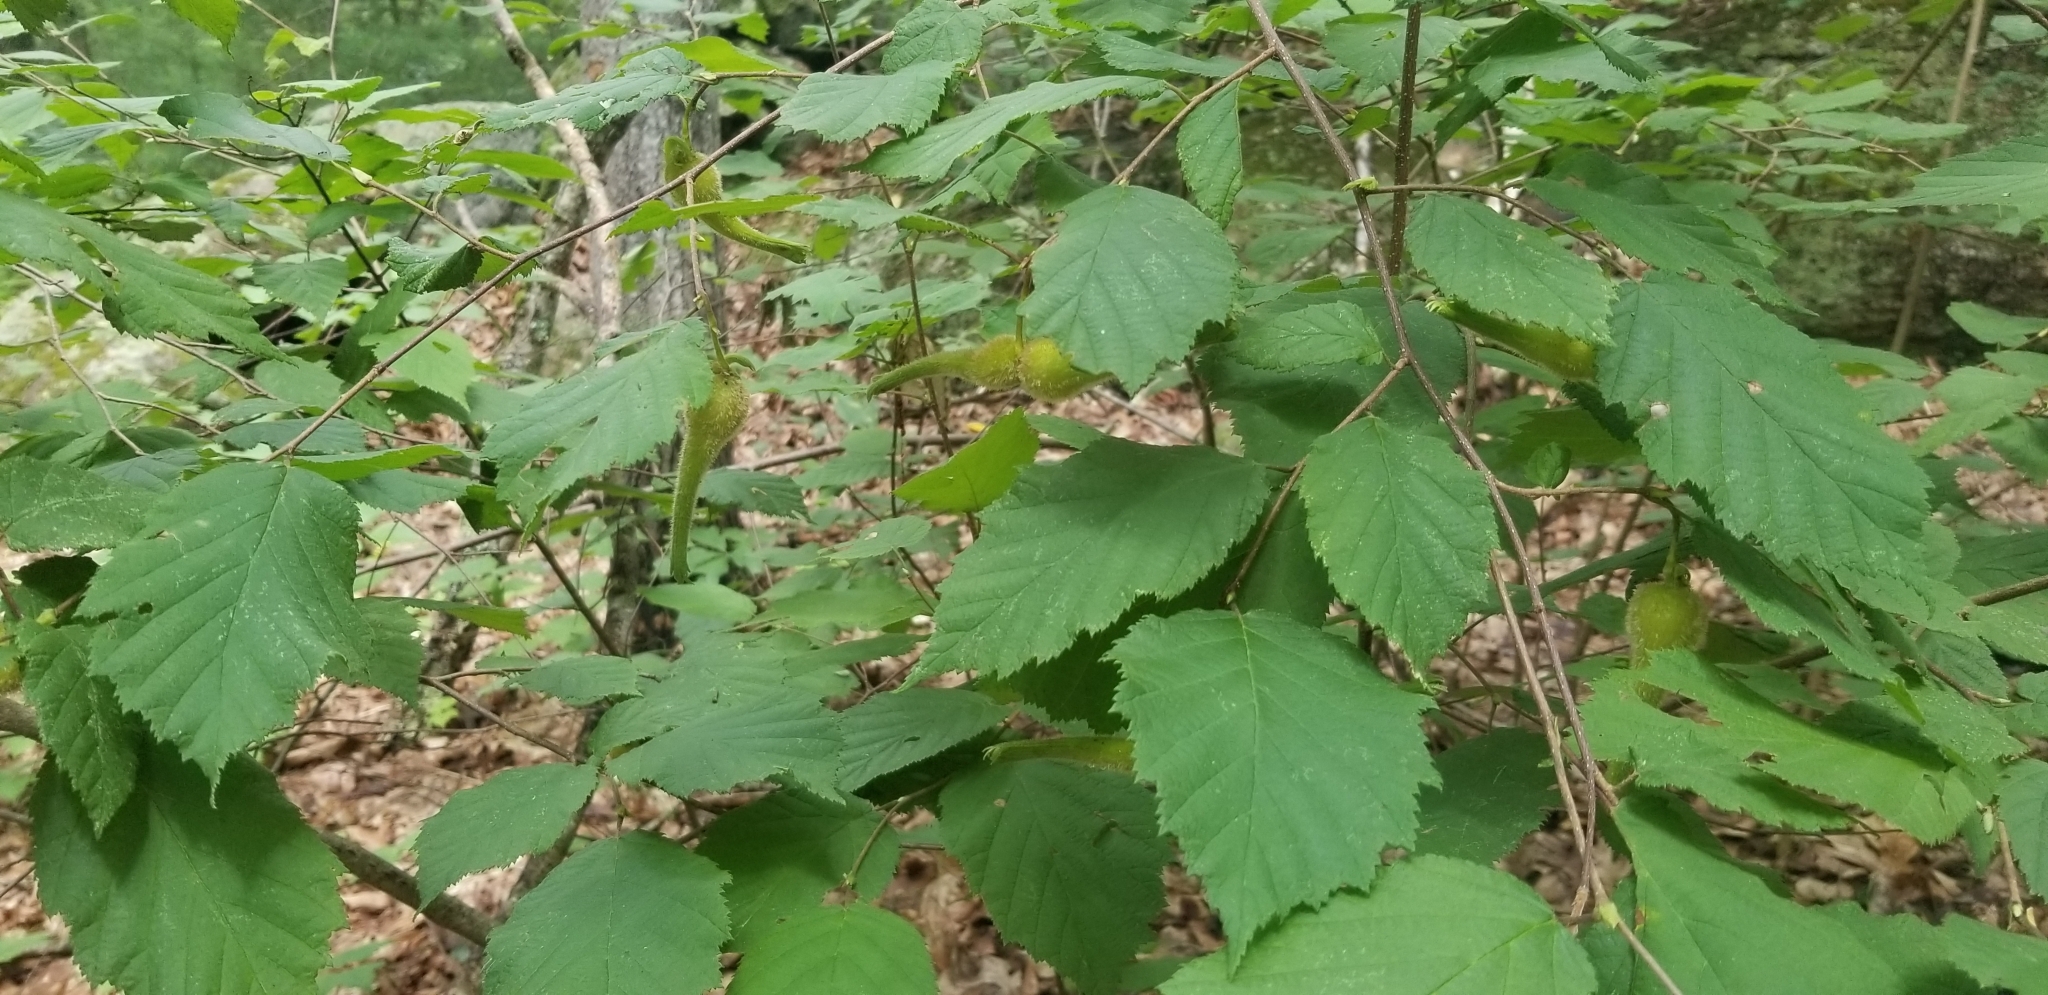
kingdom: Plantae
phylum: Tracheophyta
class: Magnoliopsida
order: Fagales
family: Betulaceae
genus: Corylus
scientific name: Corylus cornuta
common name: Beaked hazel
